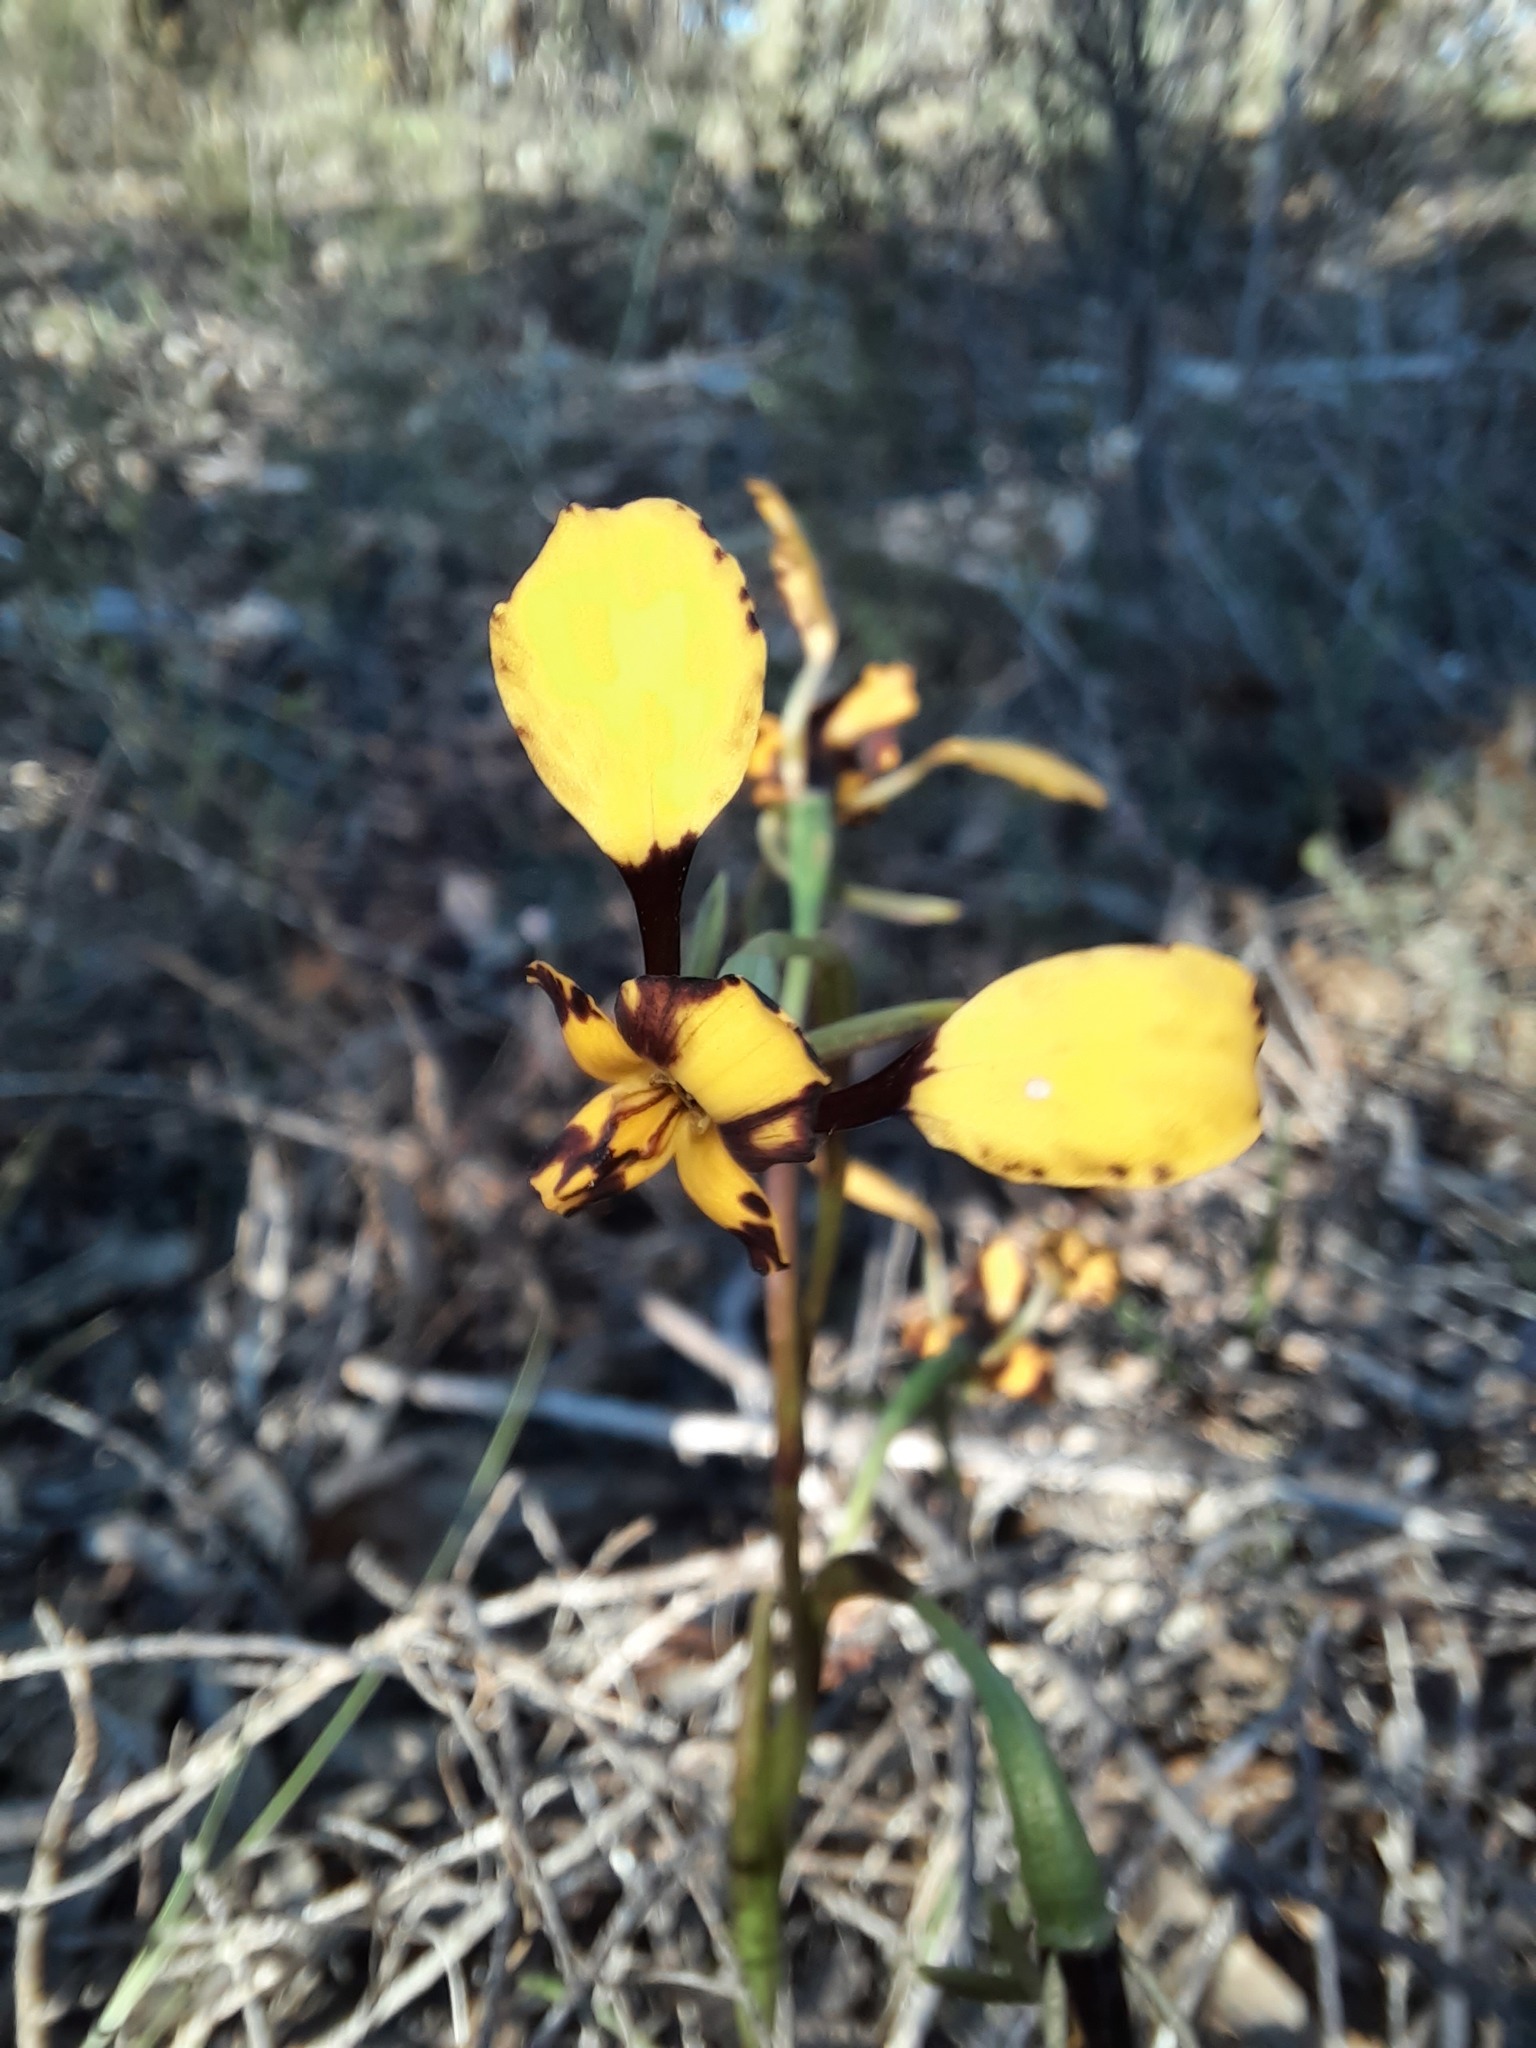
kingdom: Plantae
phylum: Tracheophyta
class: Liliopsida
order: Asparagales
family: Orchidaceae
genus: Diuris
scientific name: Diuris pardina
